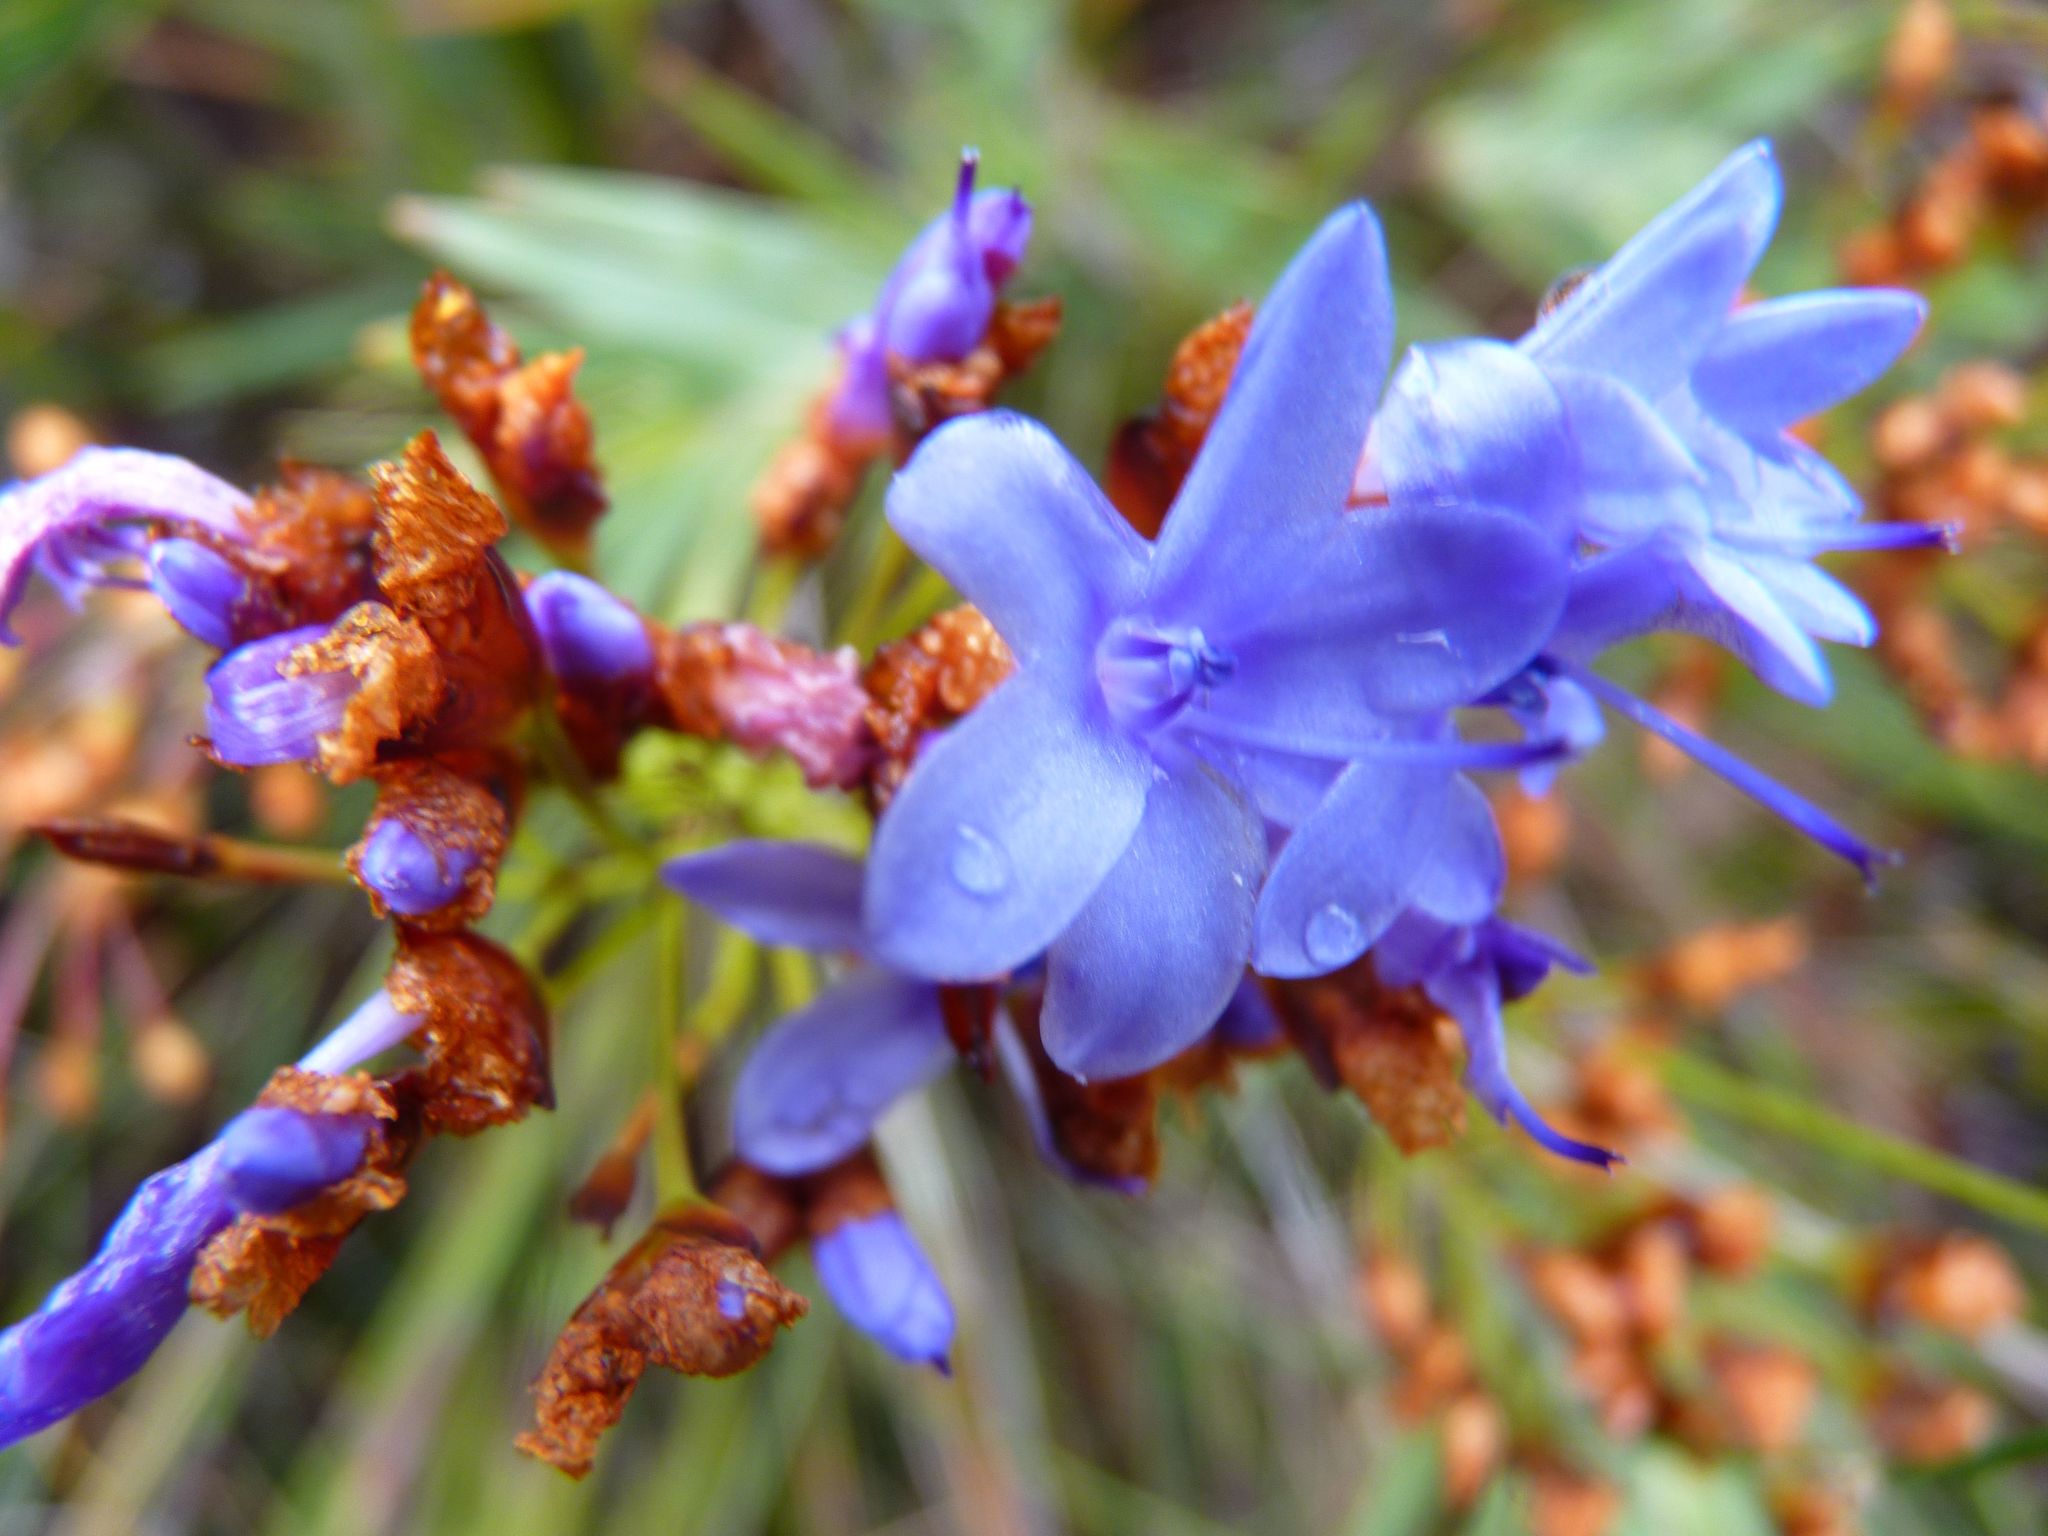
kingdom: Plantae
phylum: Tracheophyta
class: Liliopsida
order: Asparagales
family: Iridaceae
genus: Nivenia
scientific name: Nivenia binata
